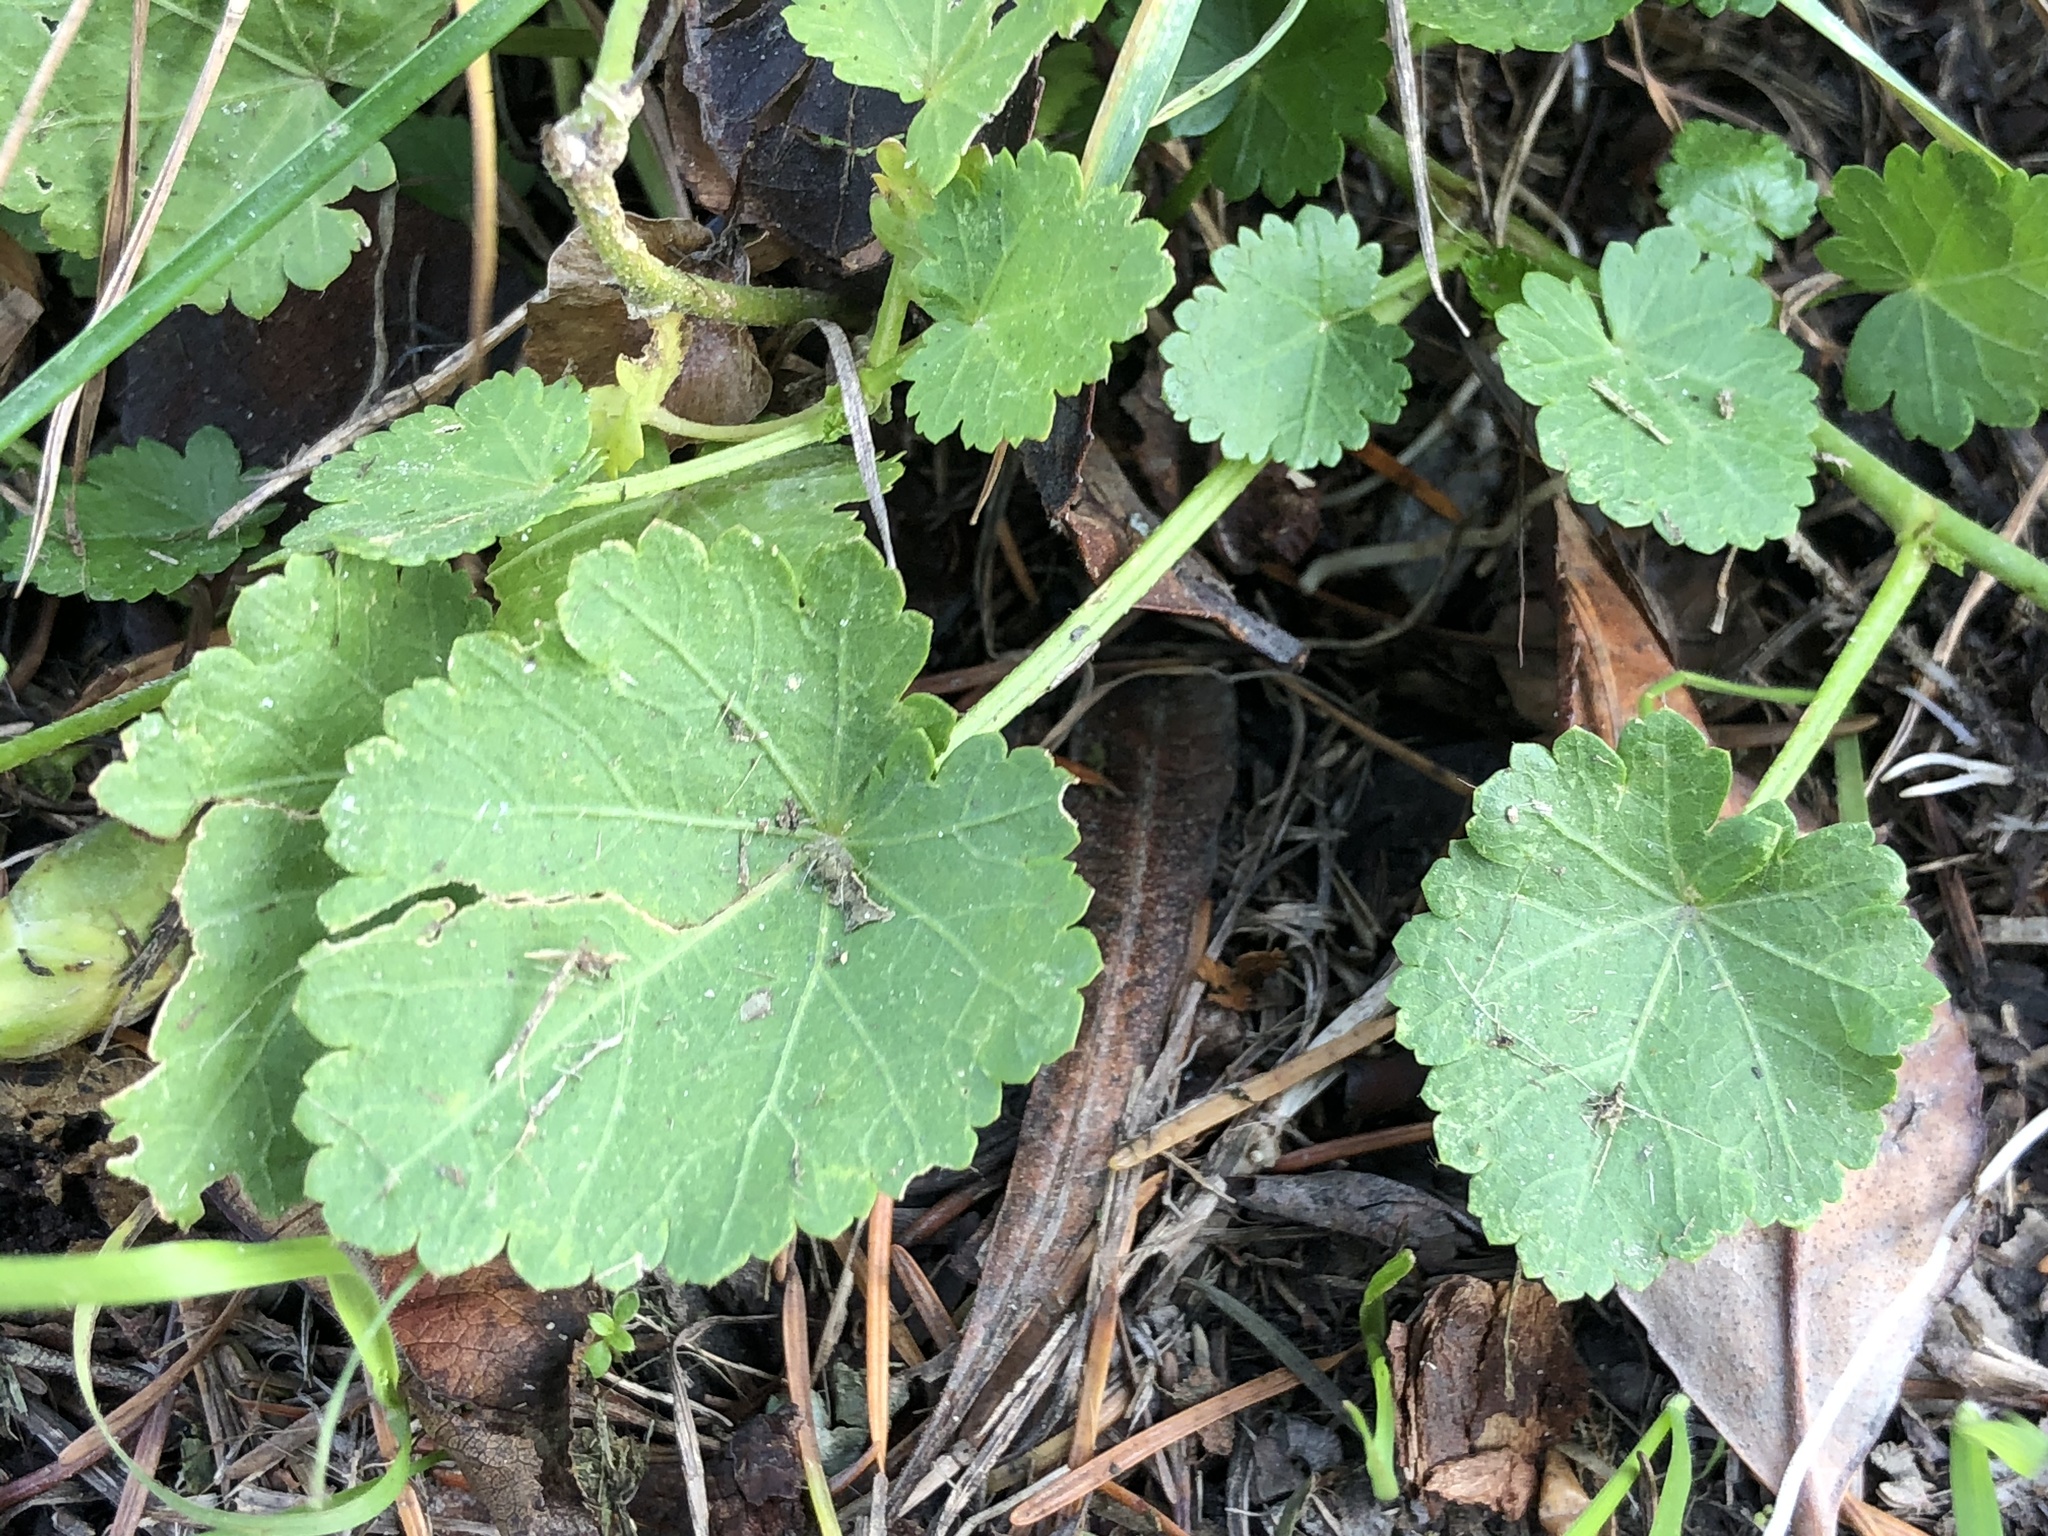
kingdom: Plantae
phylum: Tracheophyta
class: Magnoliopsida
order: Malvales
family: Malvaceae
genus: Modiola
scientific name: Modiola caroliniana
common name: Carolina bristlemallow
